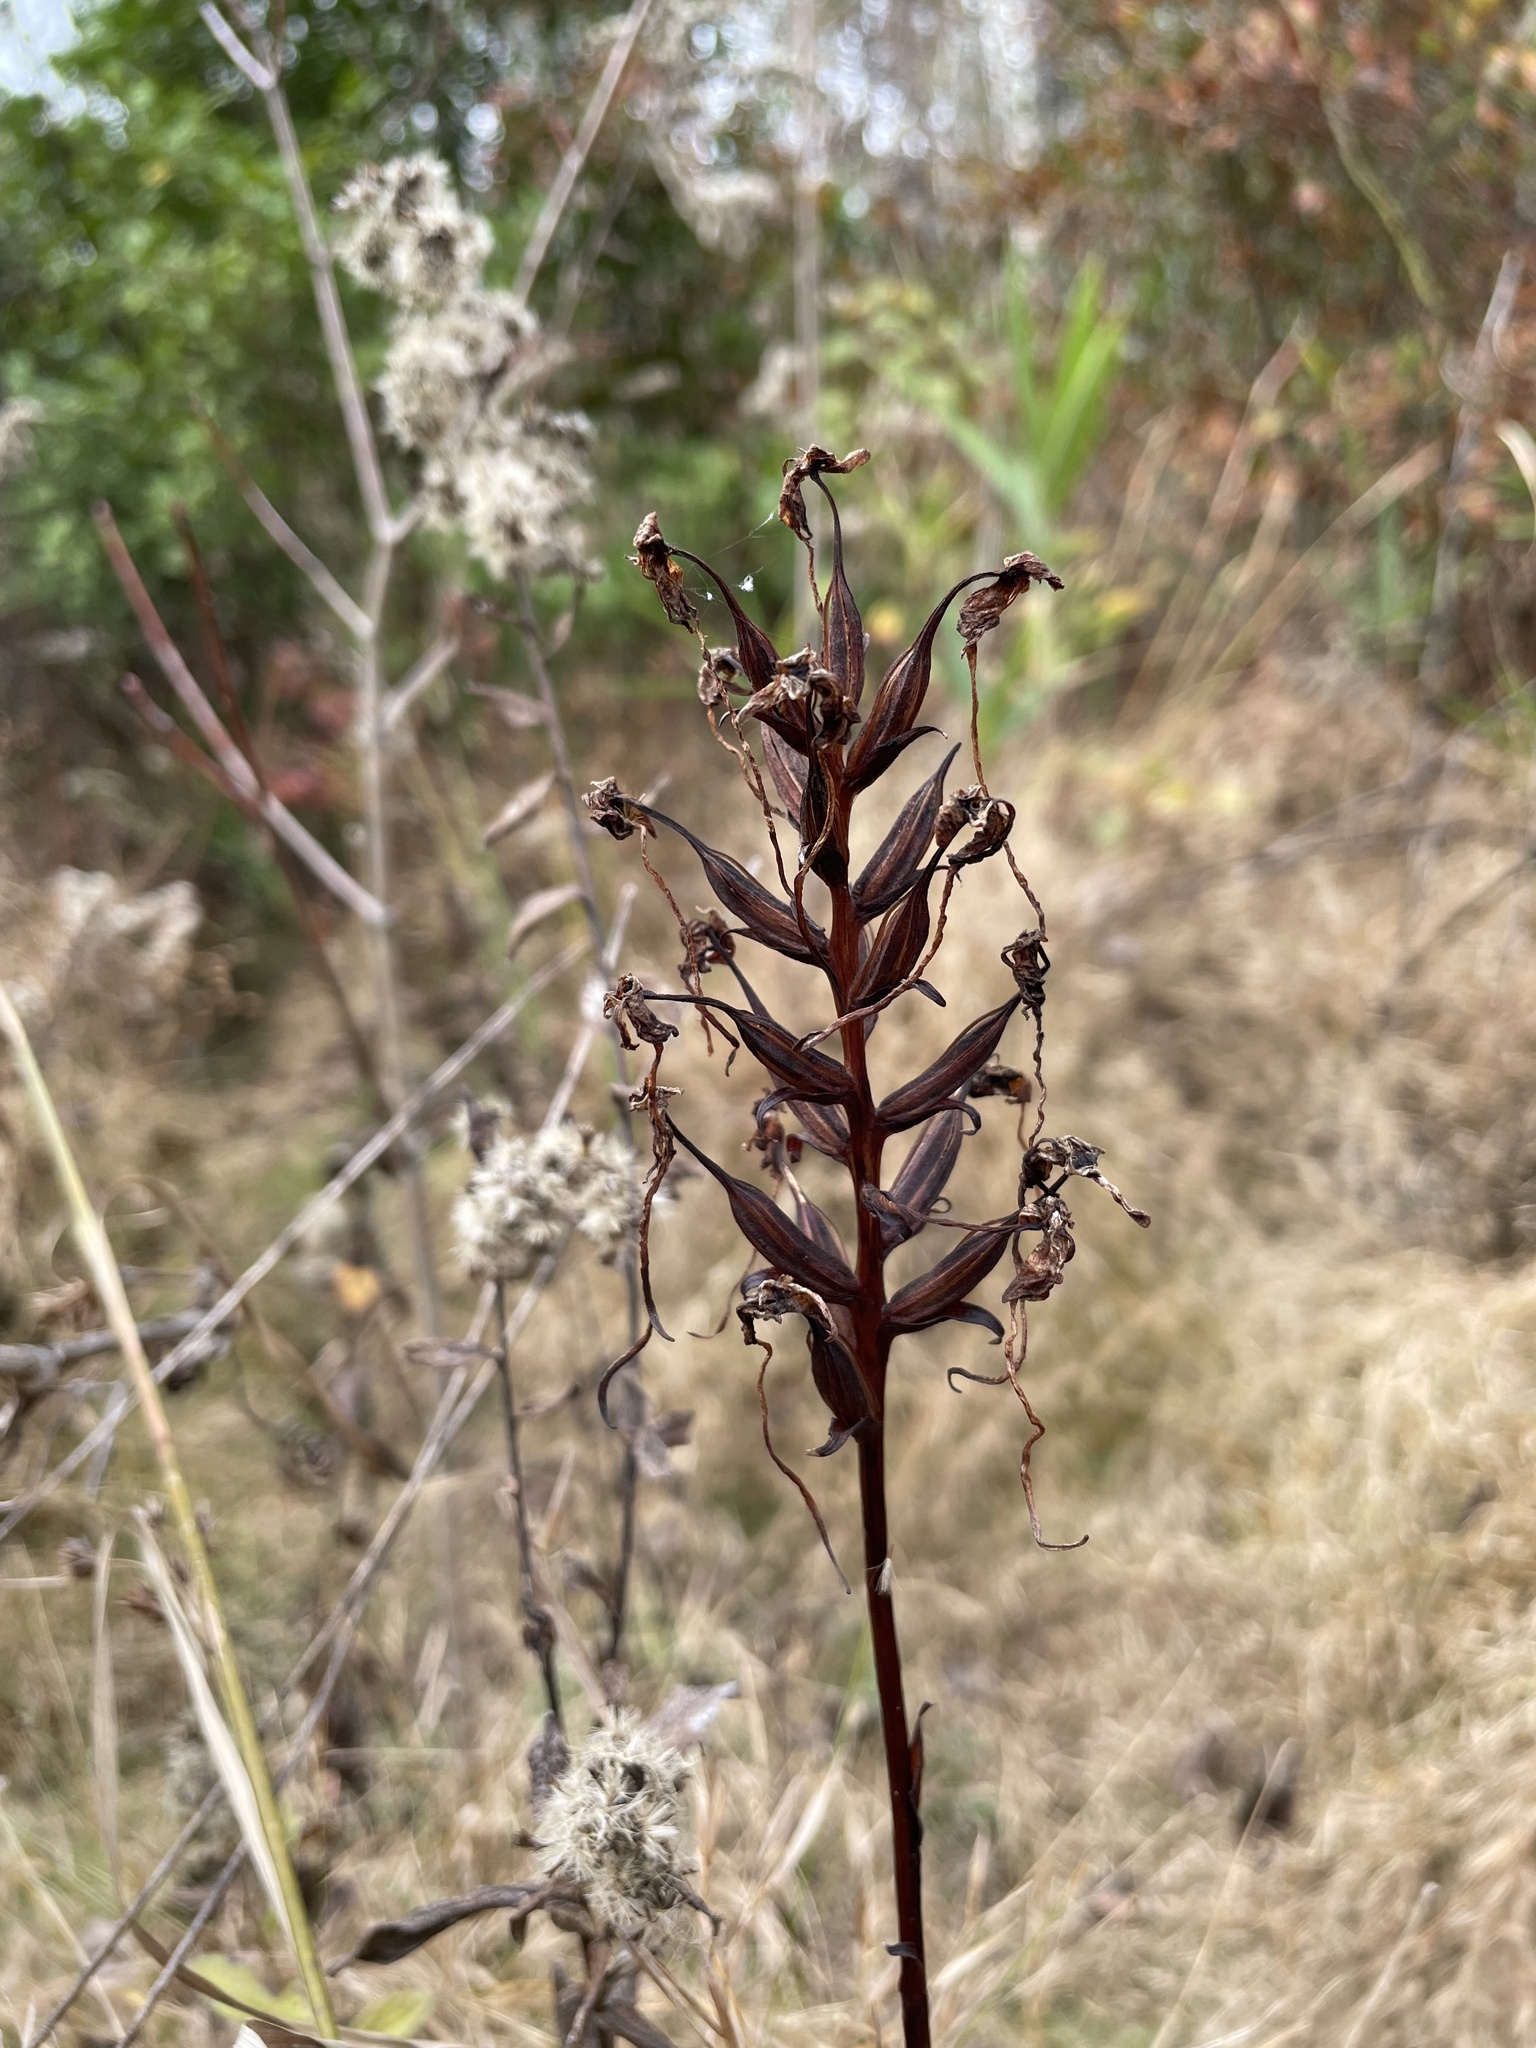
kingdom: Plantae
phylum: Tracheophyta
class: Liliopsida
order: Asparagales
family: Orchidaceae
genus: Platanthera
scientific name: Platanthera integrilabia
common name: White fringeless orchid
